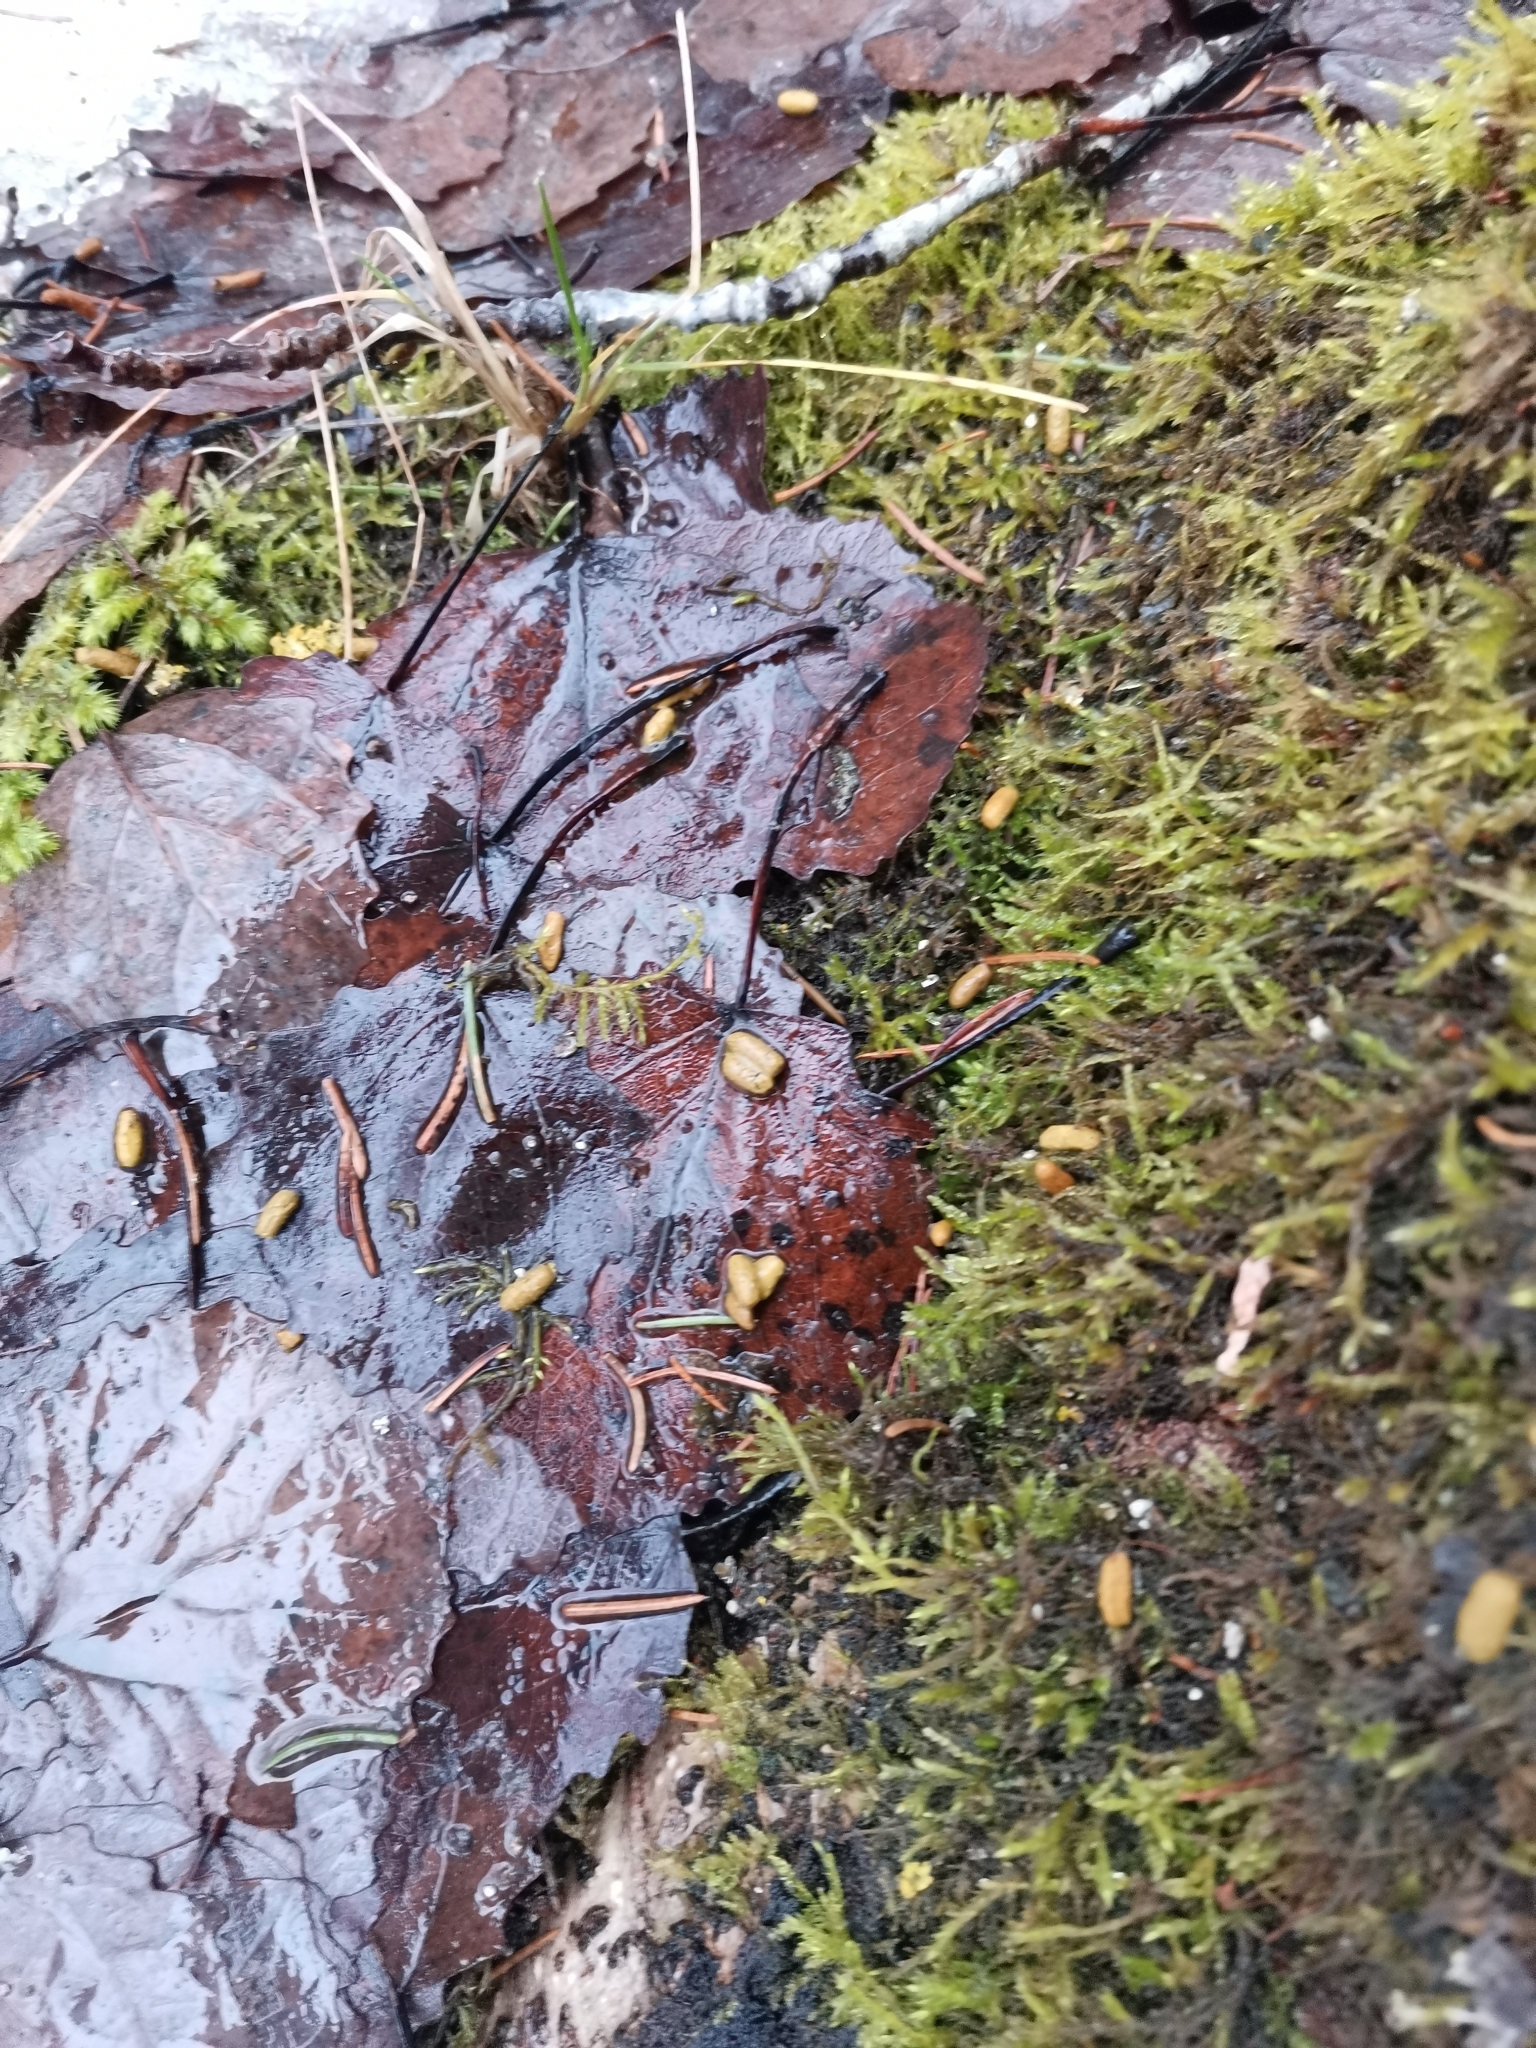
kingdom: Animalia
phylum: Chordata
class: Mammalia
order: Rodentia
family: Sciuridae
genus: Pteromys
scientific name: Pteromys volans
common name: Siberian flying squirrel
